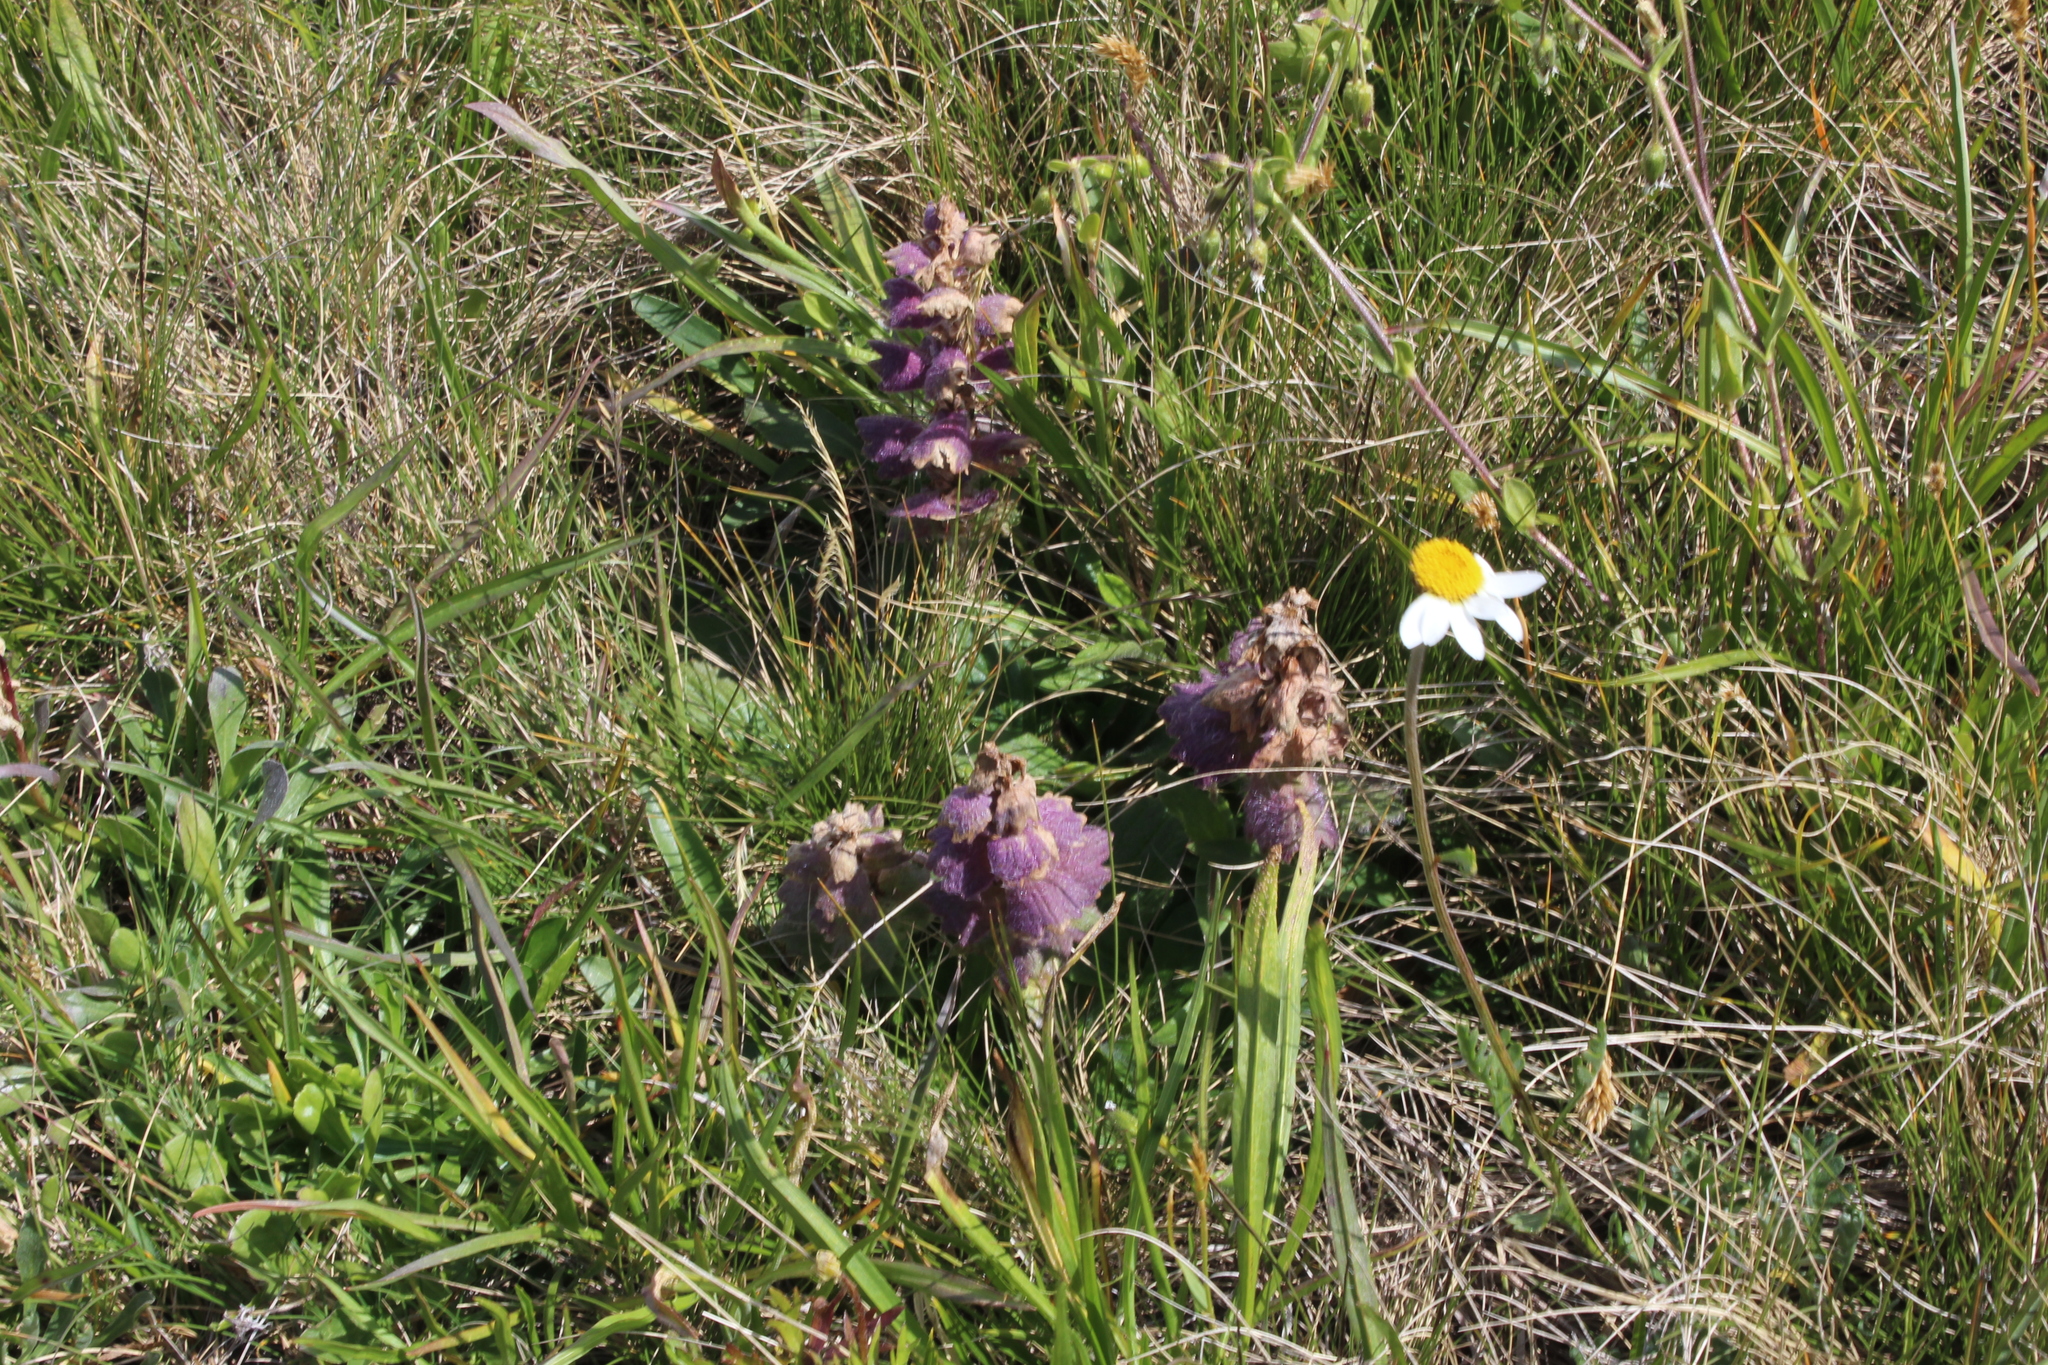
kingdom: Plantae
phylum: Tracheophyta
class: Magnoliopsida
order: Lamiales
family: Lamiaceae
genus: Ajuga
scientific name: Ajuga orientalis
